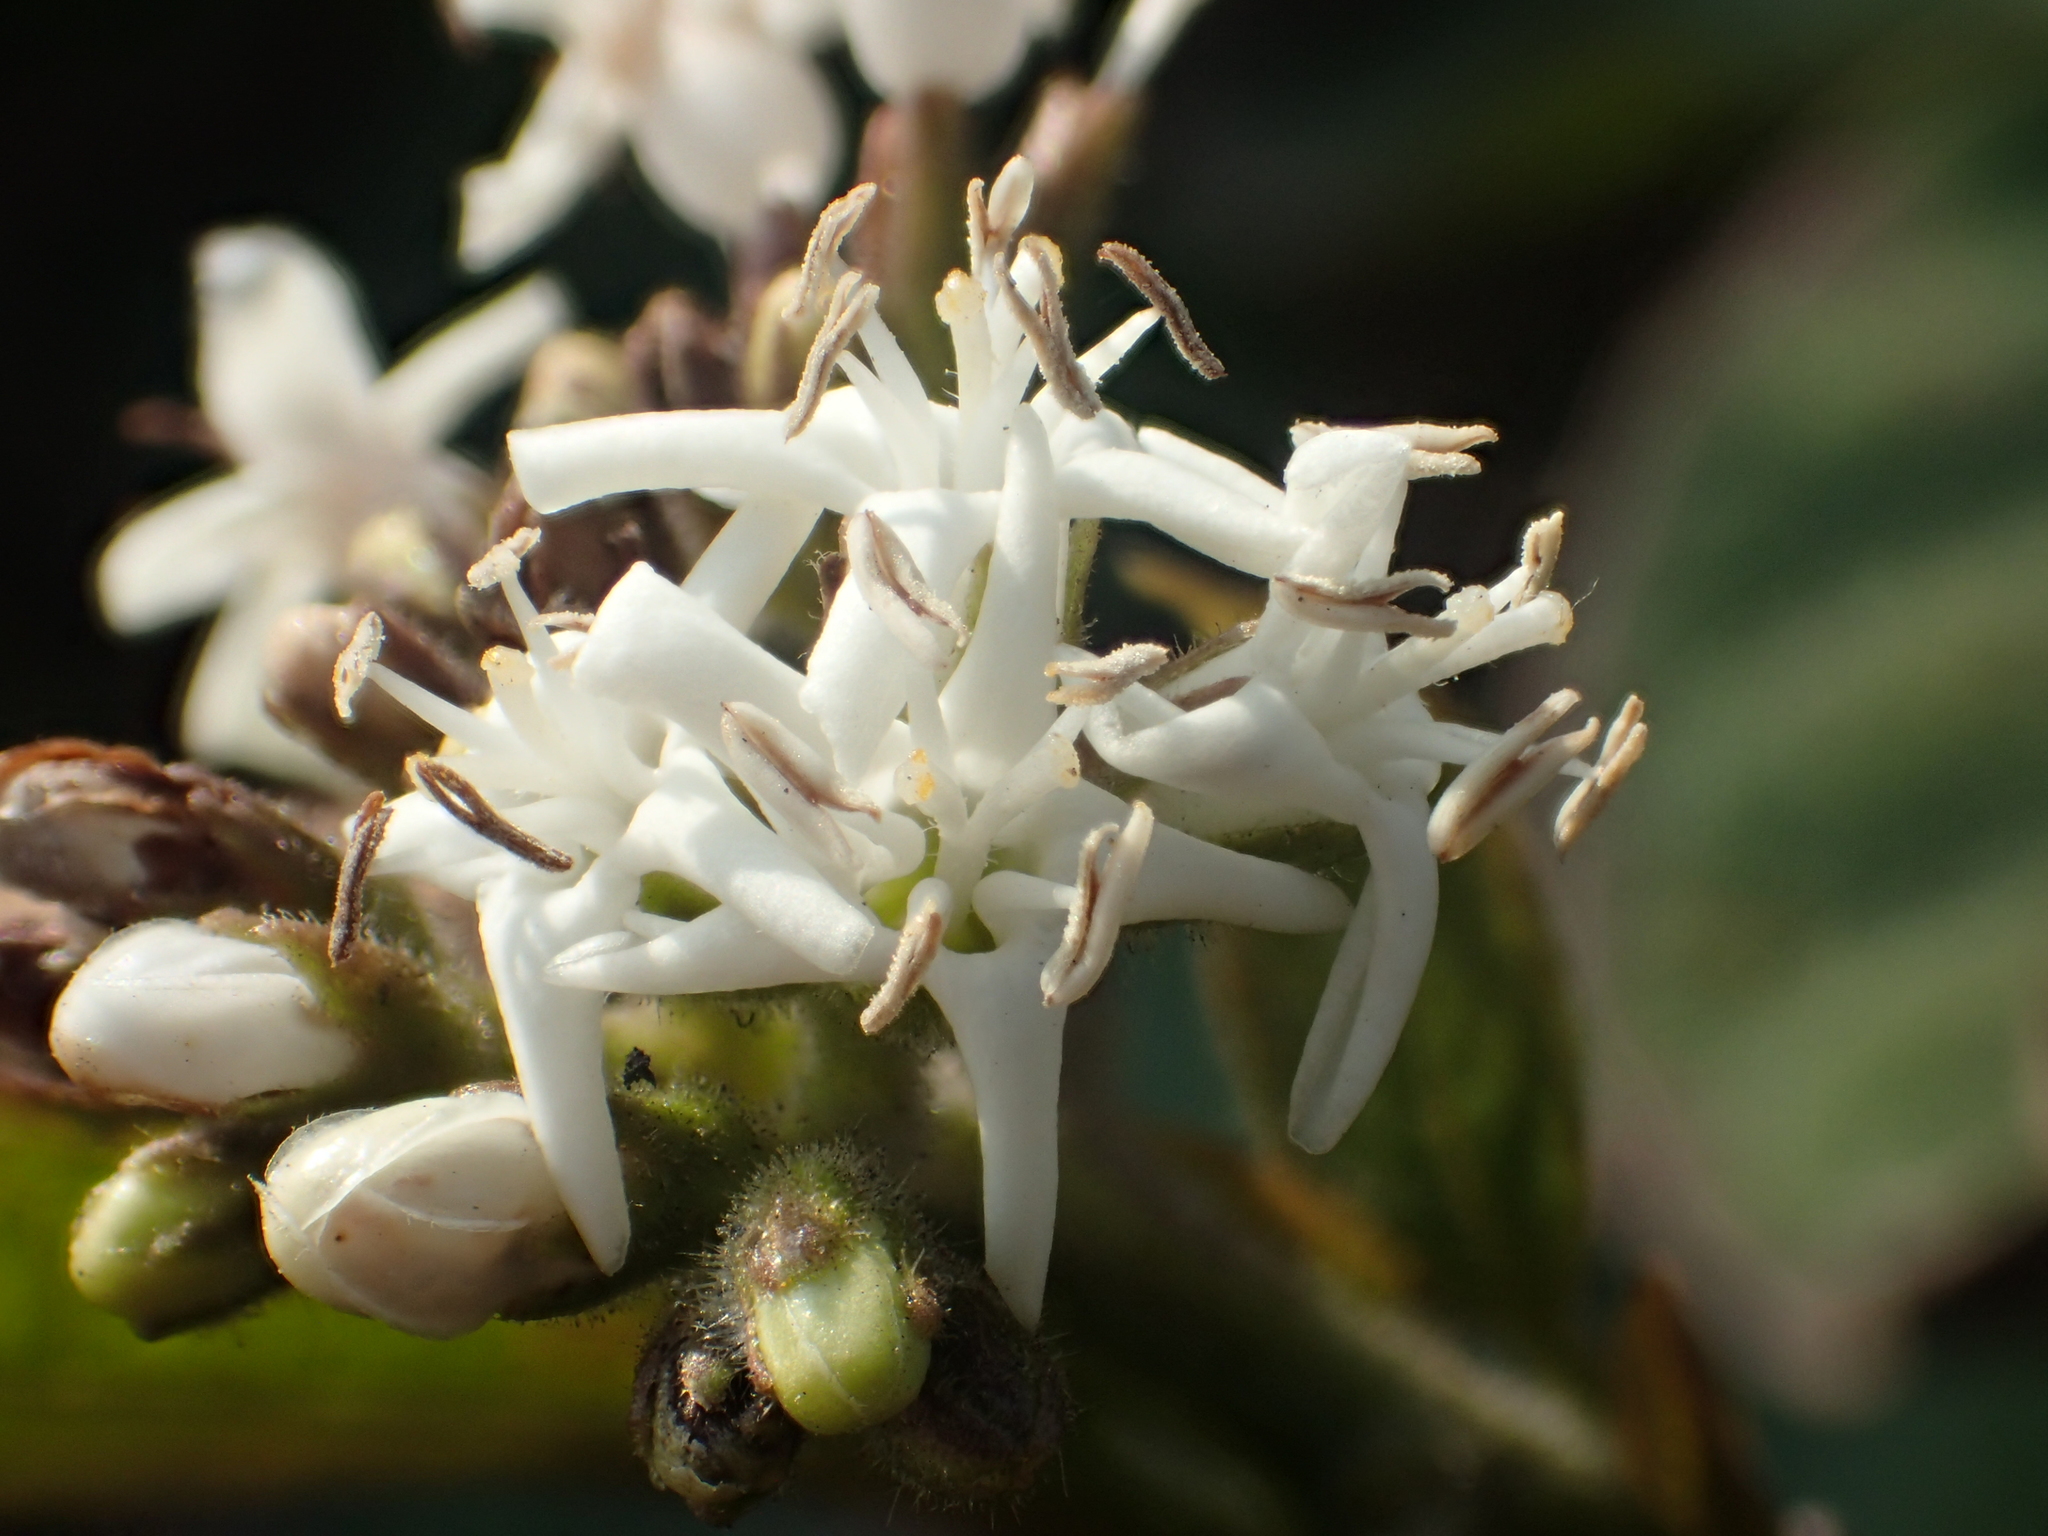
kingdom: Plantae
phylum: Tracheophyta
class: Magnoliopsida
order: Boraginales
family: Ehretiaceae
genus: Ehretia
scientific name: Ehretia resinosa
